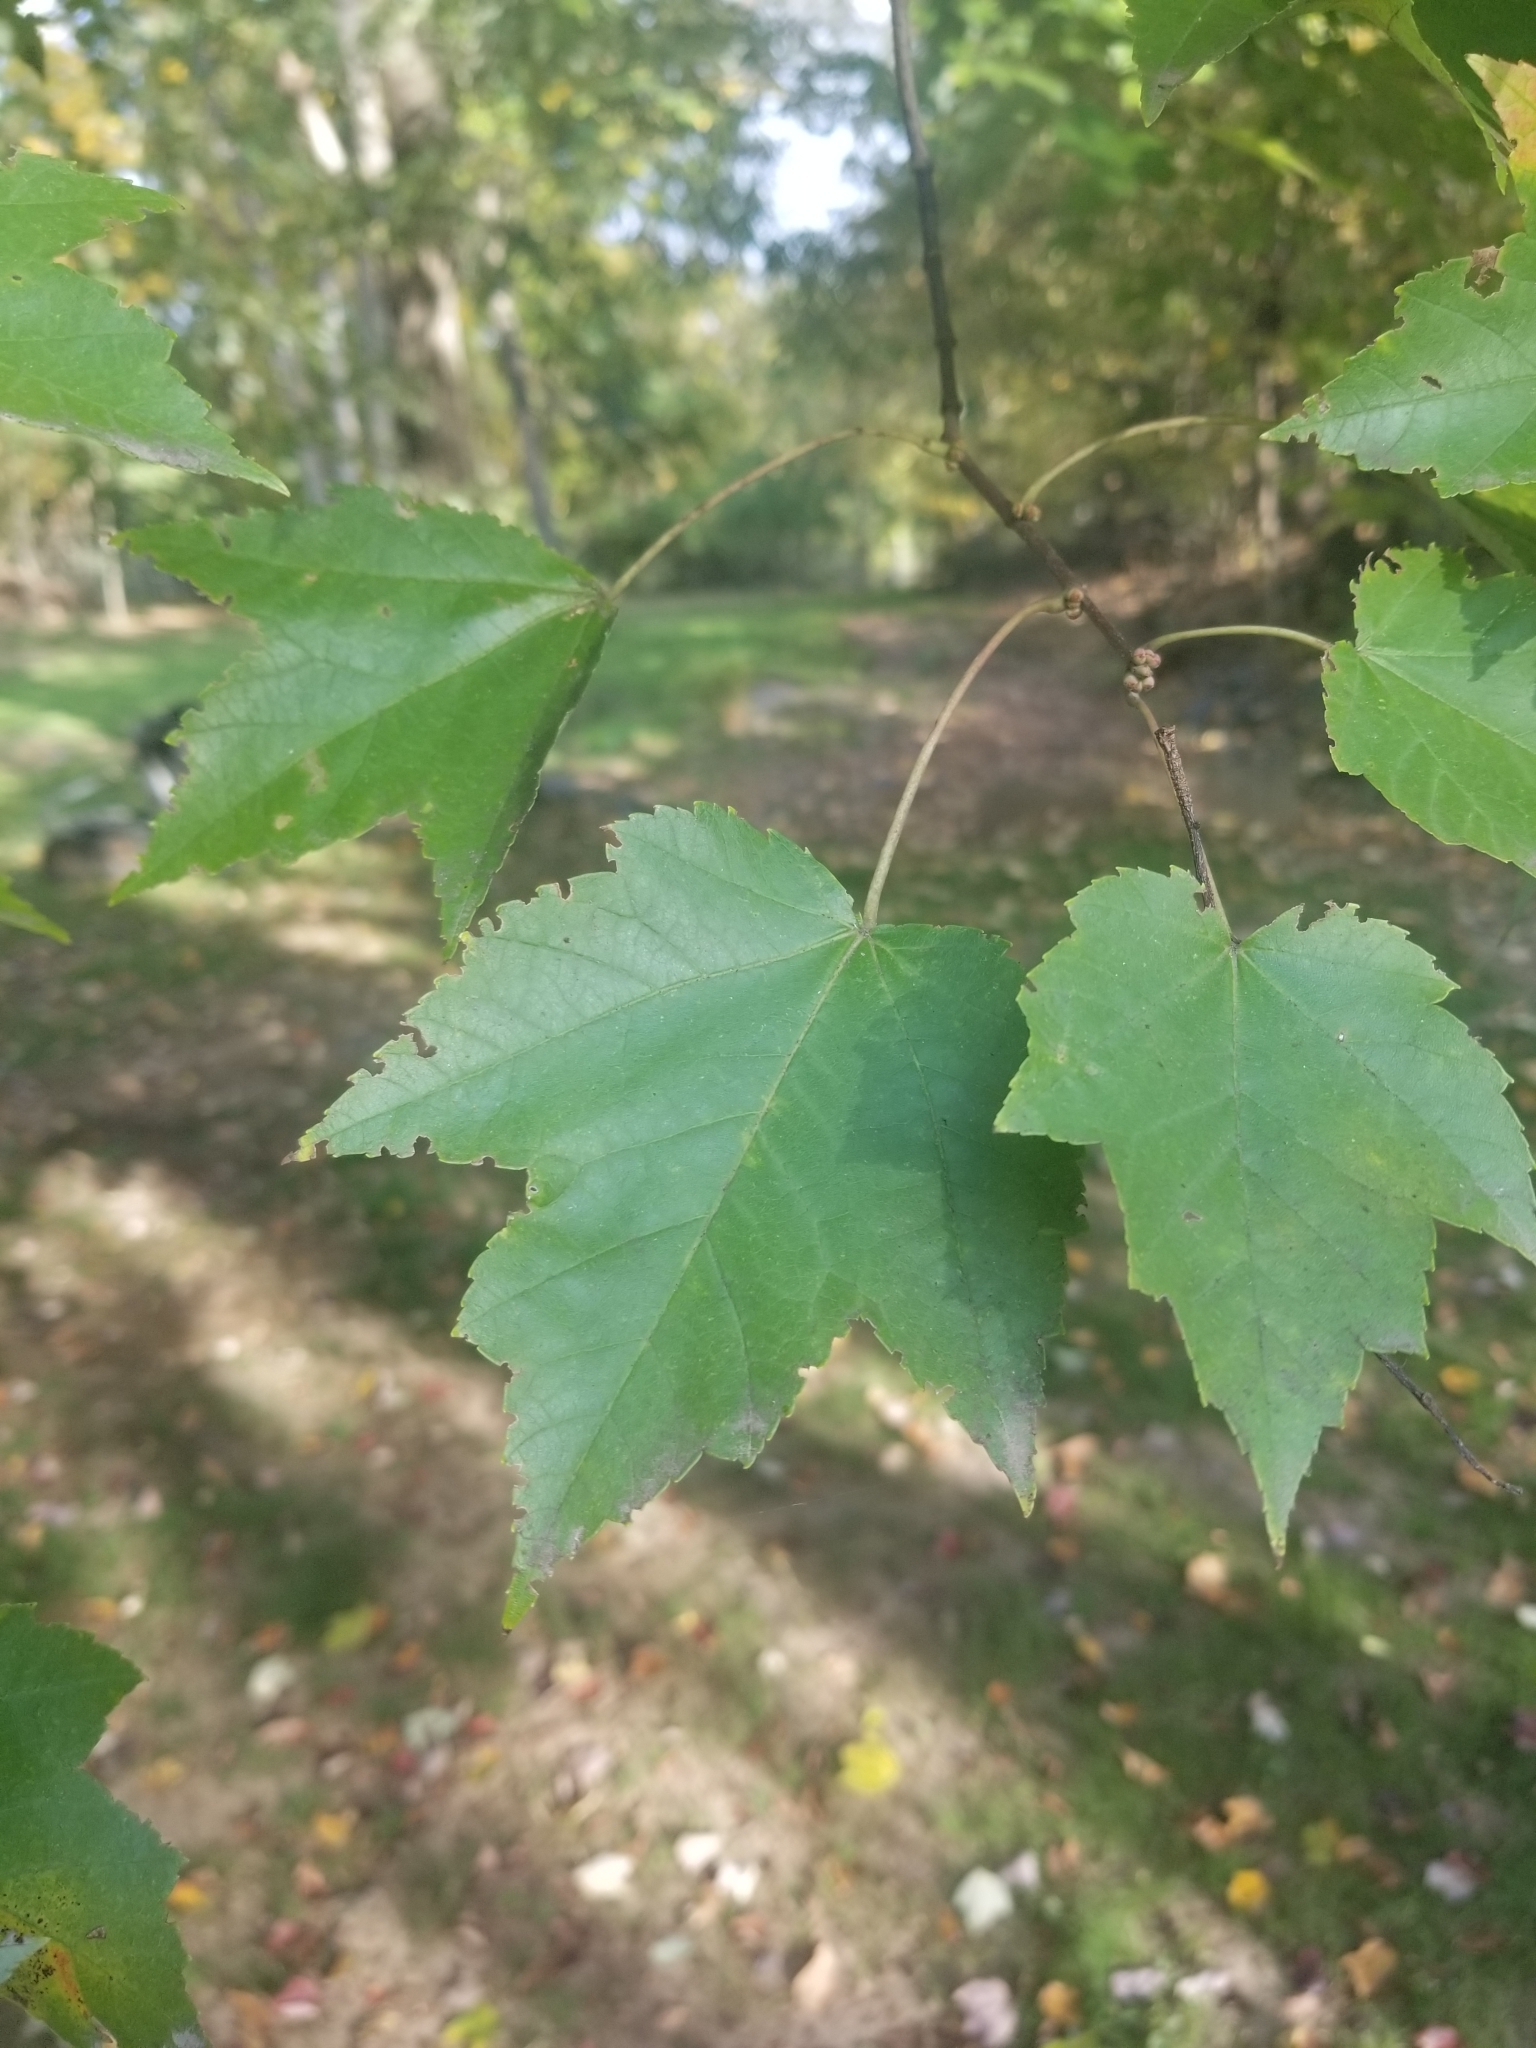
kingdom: Plantae
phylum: Tracheophyta
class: Magnoliopsida
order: Sapindales
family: Sapindaceae
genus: Acer
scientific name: Acer rubrum
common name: Red maple
